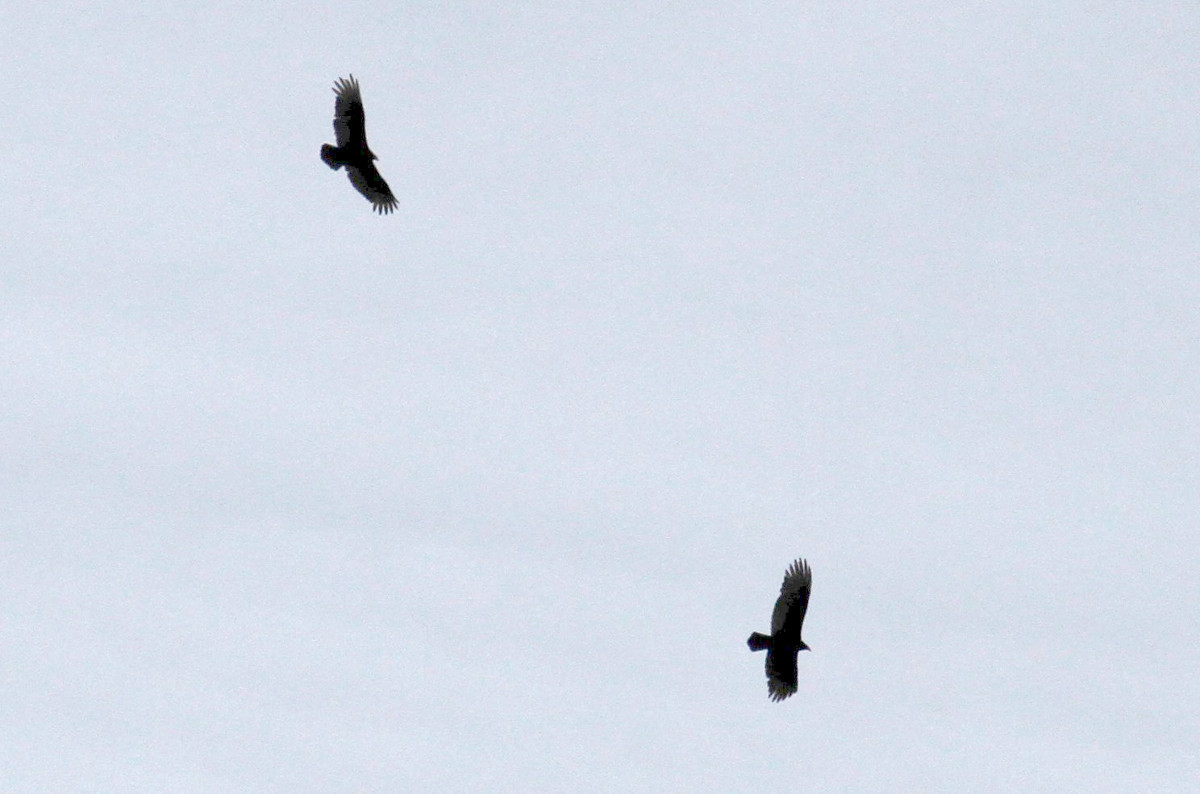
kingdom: Animalia
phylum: Chordata
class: Aves
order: Accipitriformes
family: Cathartidae
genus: Cathartes
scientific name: Cathartes aura
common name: Turkey vulture
